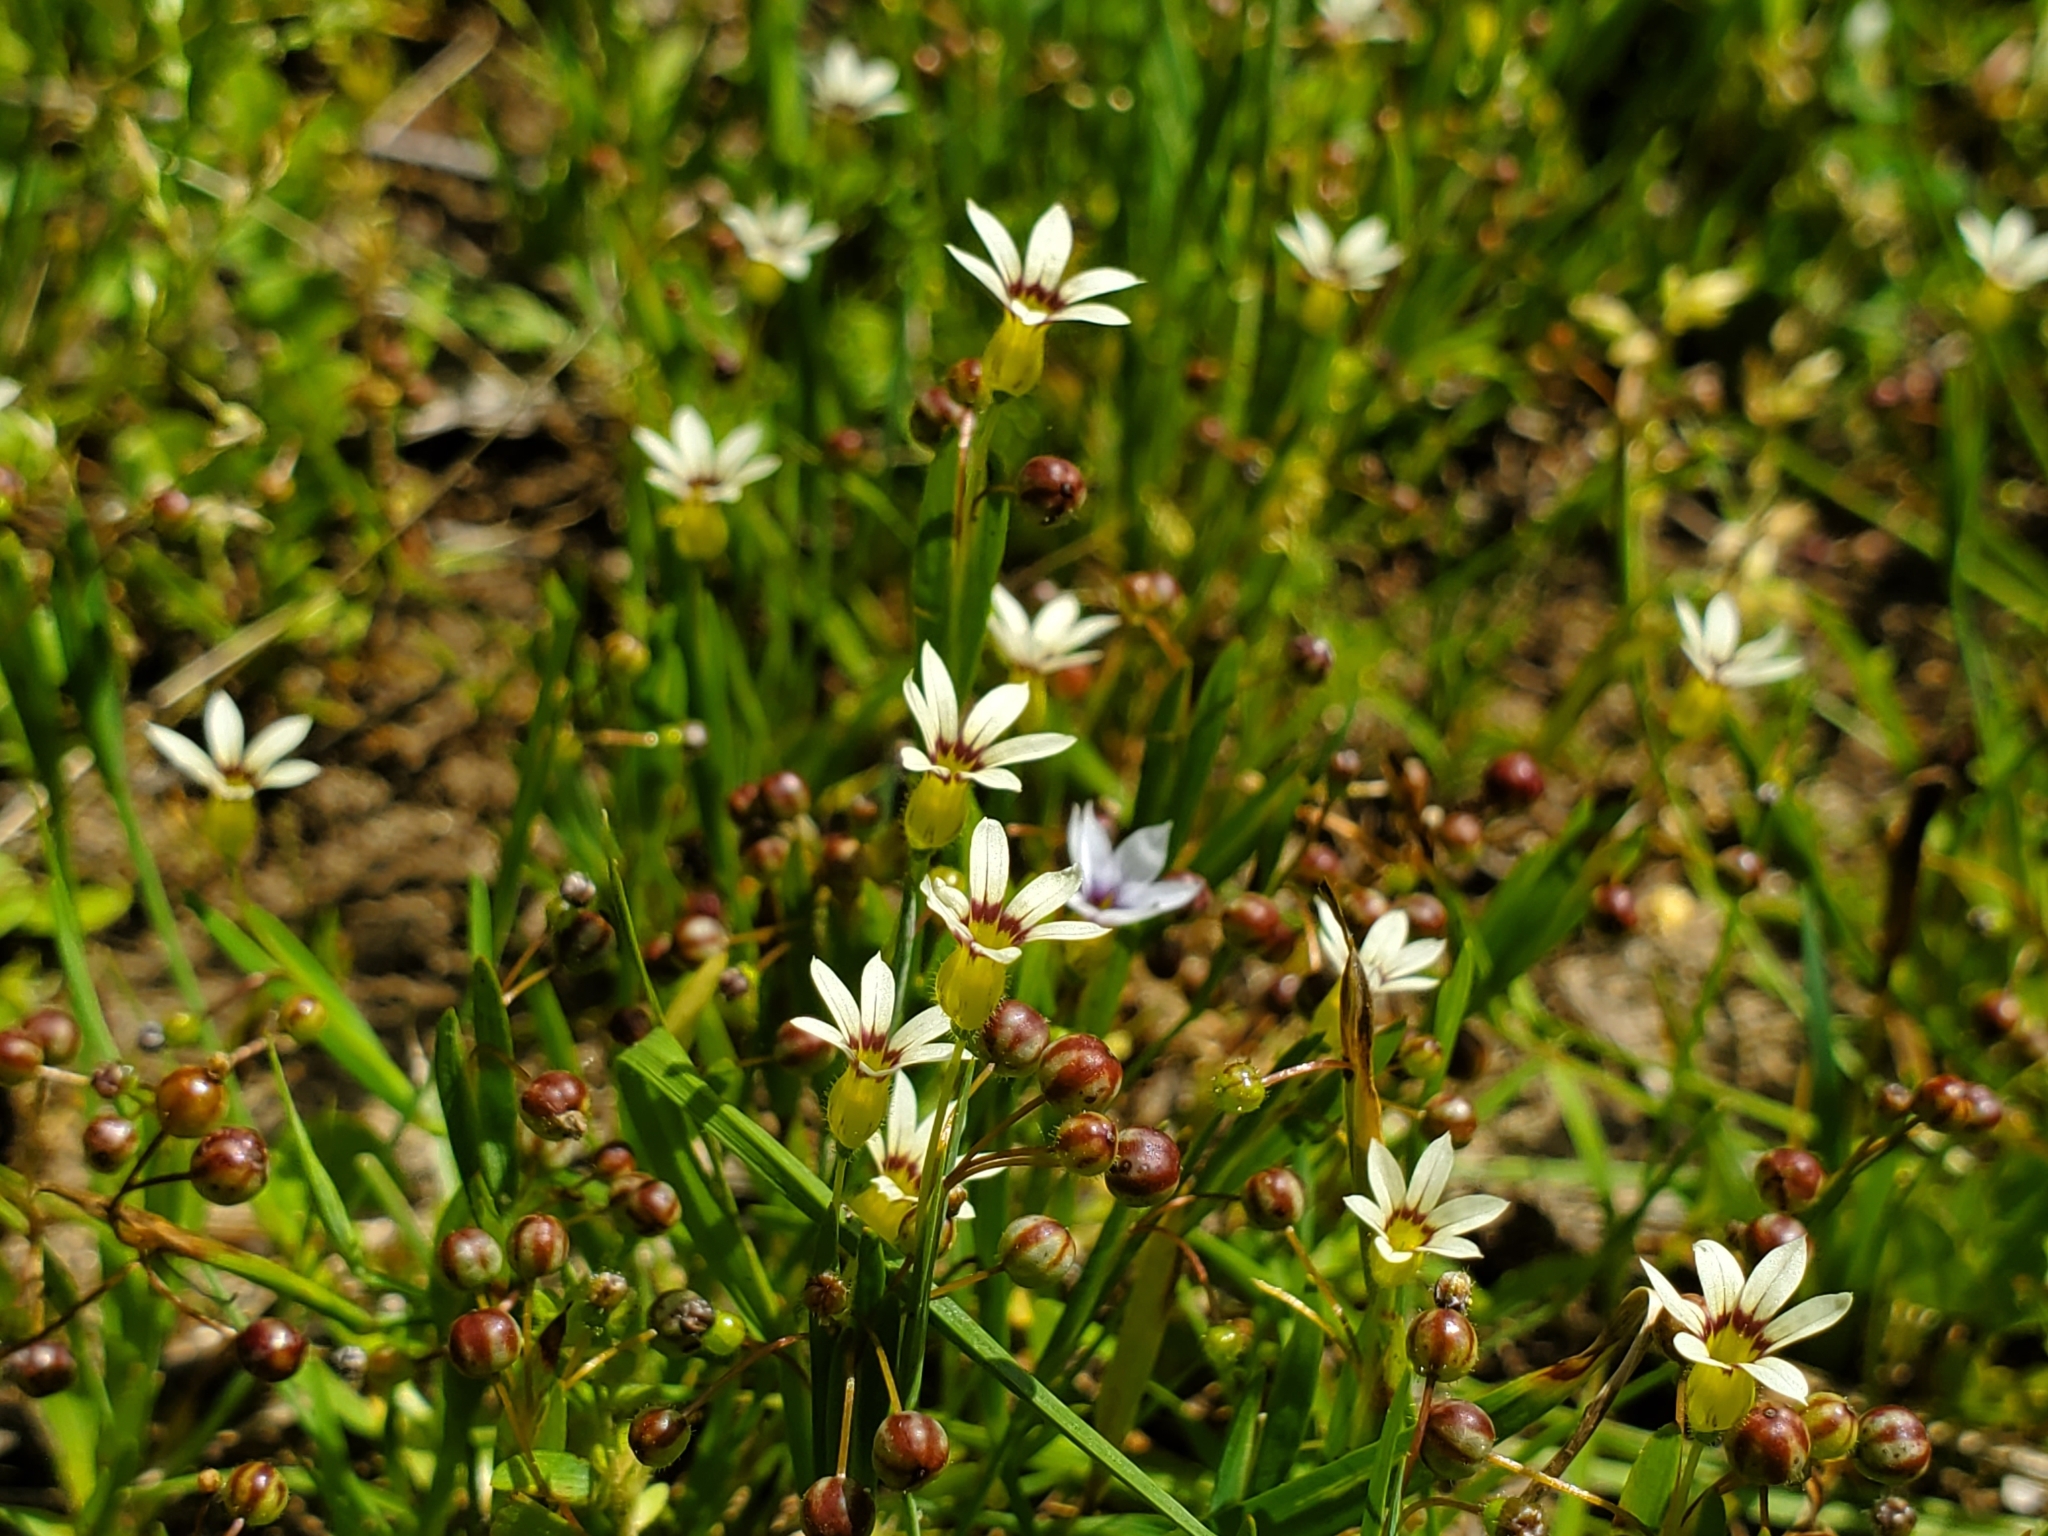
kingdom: Plantae
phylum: Tracheophyta
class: Liliopsida
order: Asparagales
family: Iridaceae
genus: Sisyrinchium
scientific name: Sisyrinchium micranthum
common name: Bermuda pigroot
